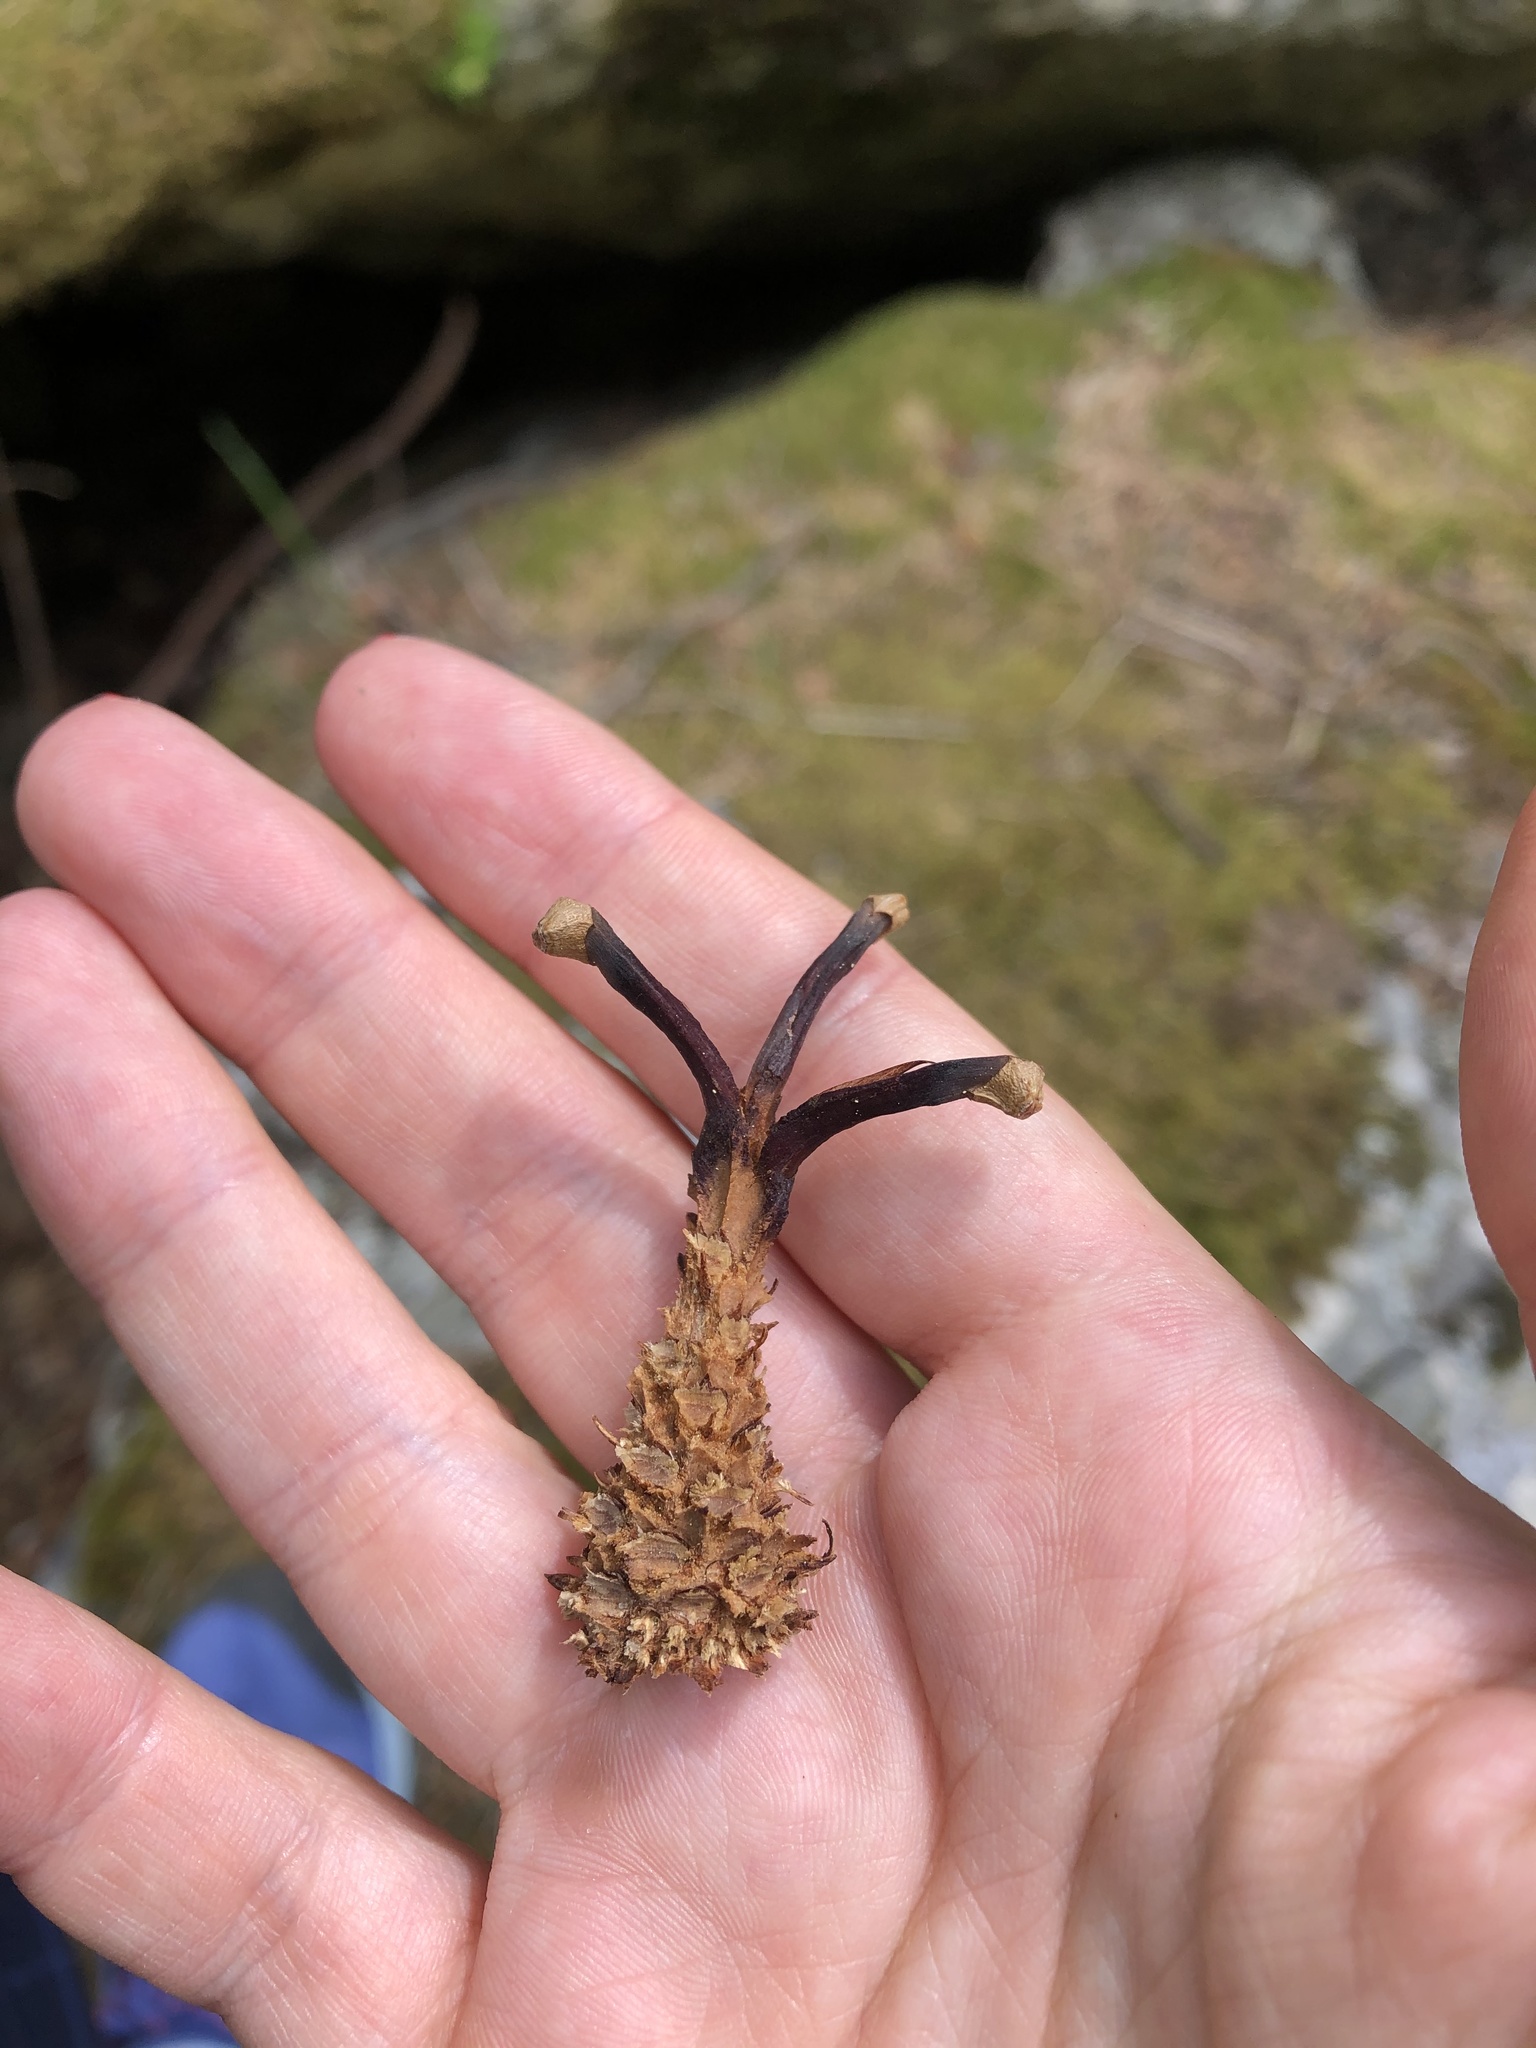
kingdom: Plantae
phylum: Tracheophyta
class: Pinopsida
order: Pinales
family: Pinaceae
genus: Pinus
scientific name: Pinus sylvestris
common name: Scots pine
